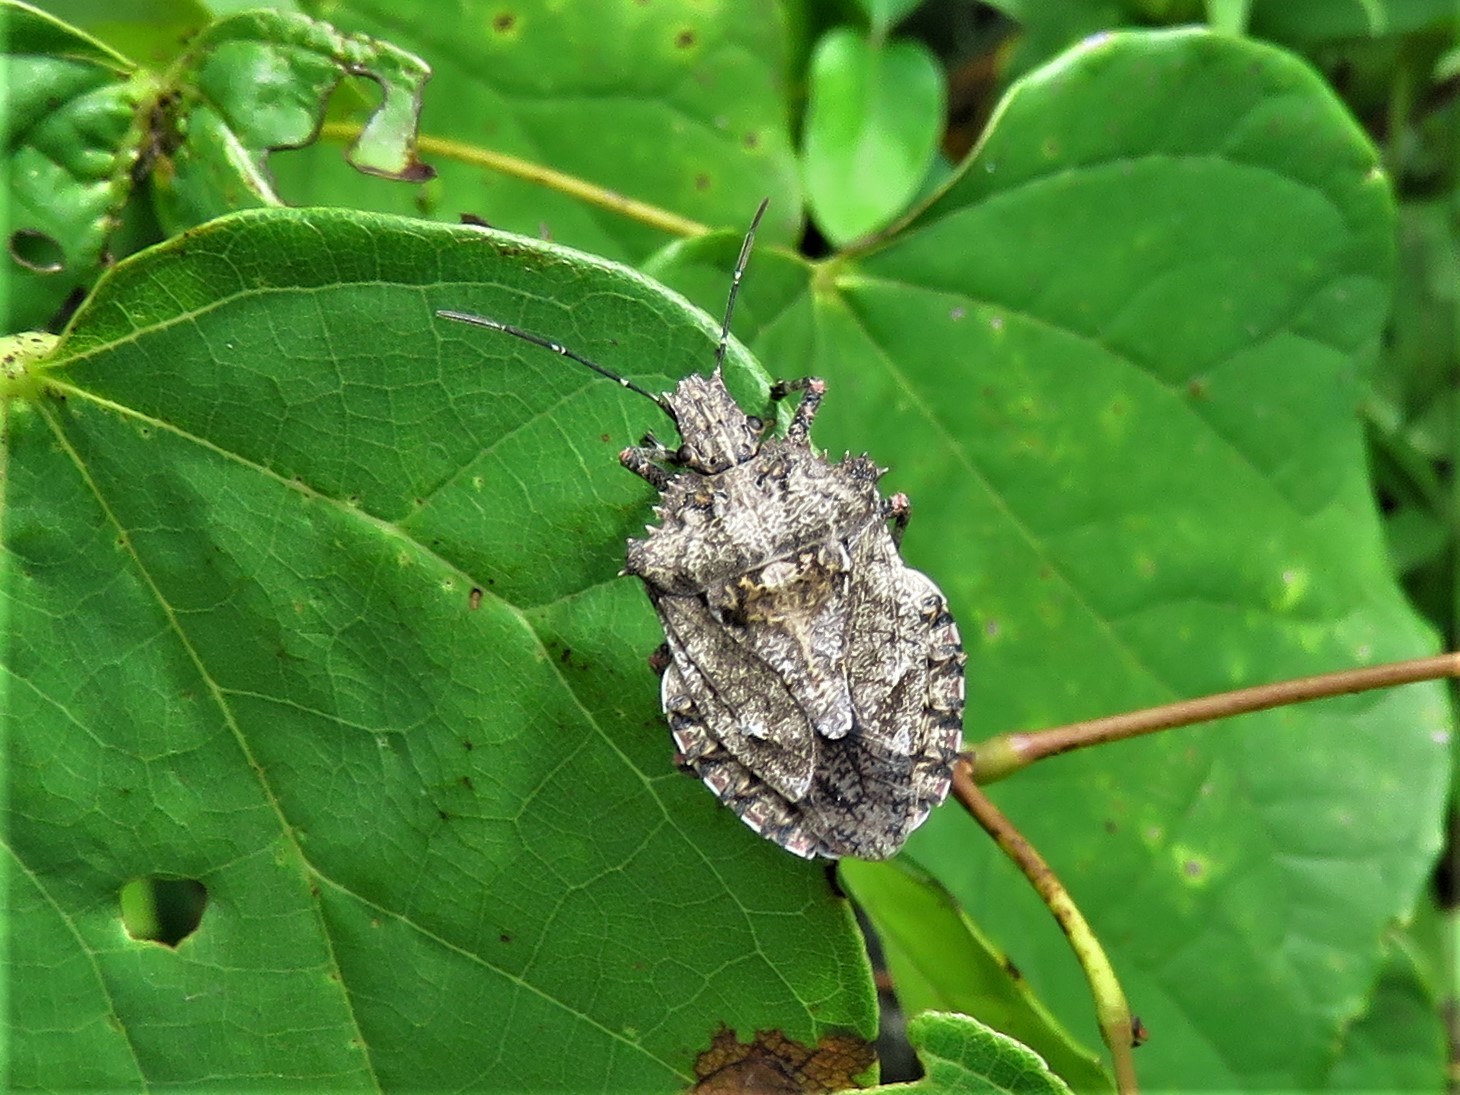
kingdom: Animalia
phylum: Arthropoda
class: Insecta
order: Hemiptera
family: Pentatomidae
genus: Brochymena
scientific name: Brochymena arborea
